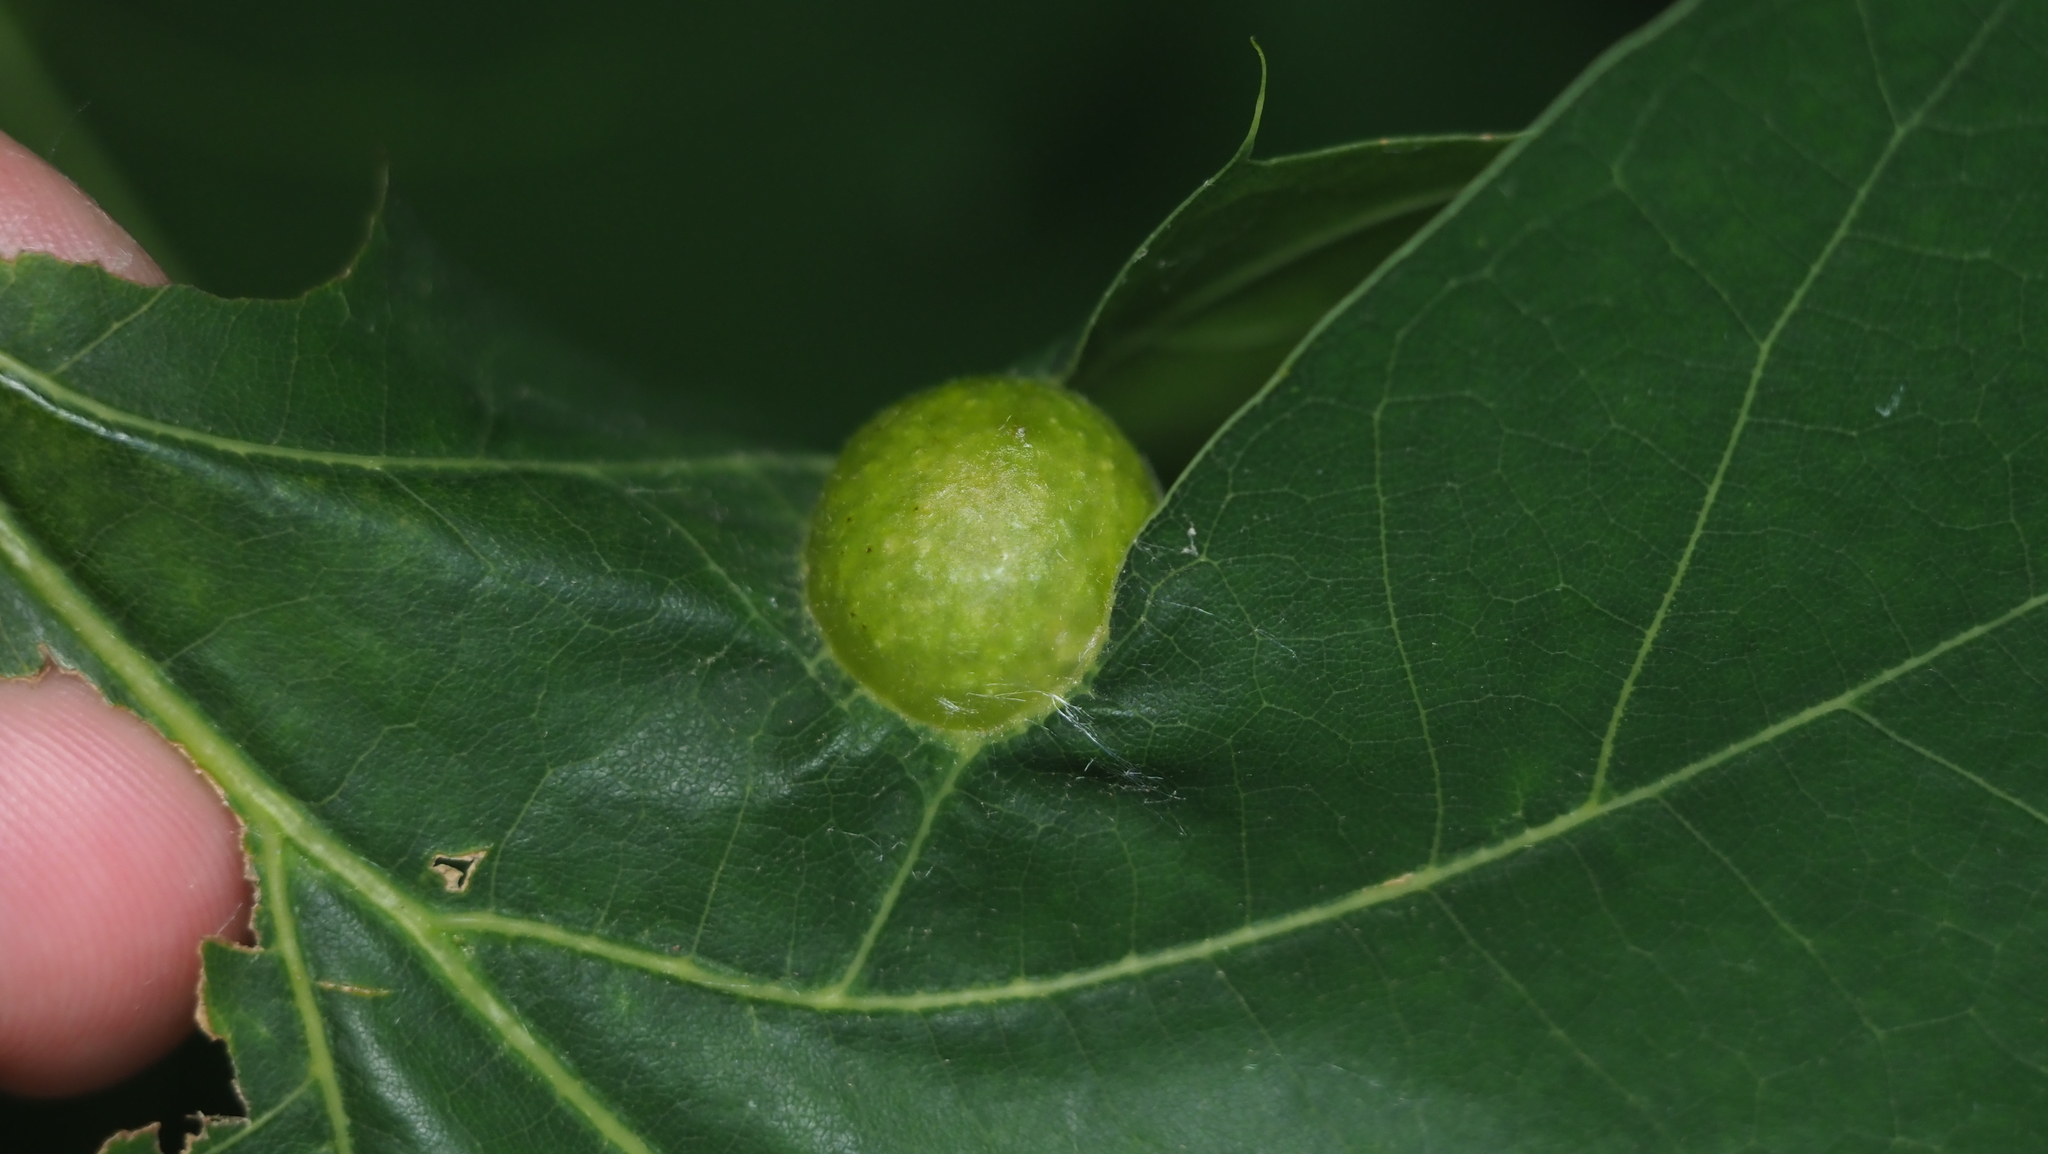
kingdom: Animalia
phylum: Arthropoda
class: Insecta
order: Hymenoptera
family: Cynipidae
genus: Amphibolips
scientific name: Amphibolips
